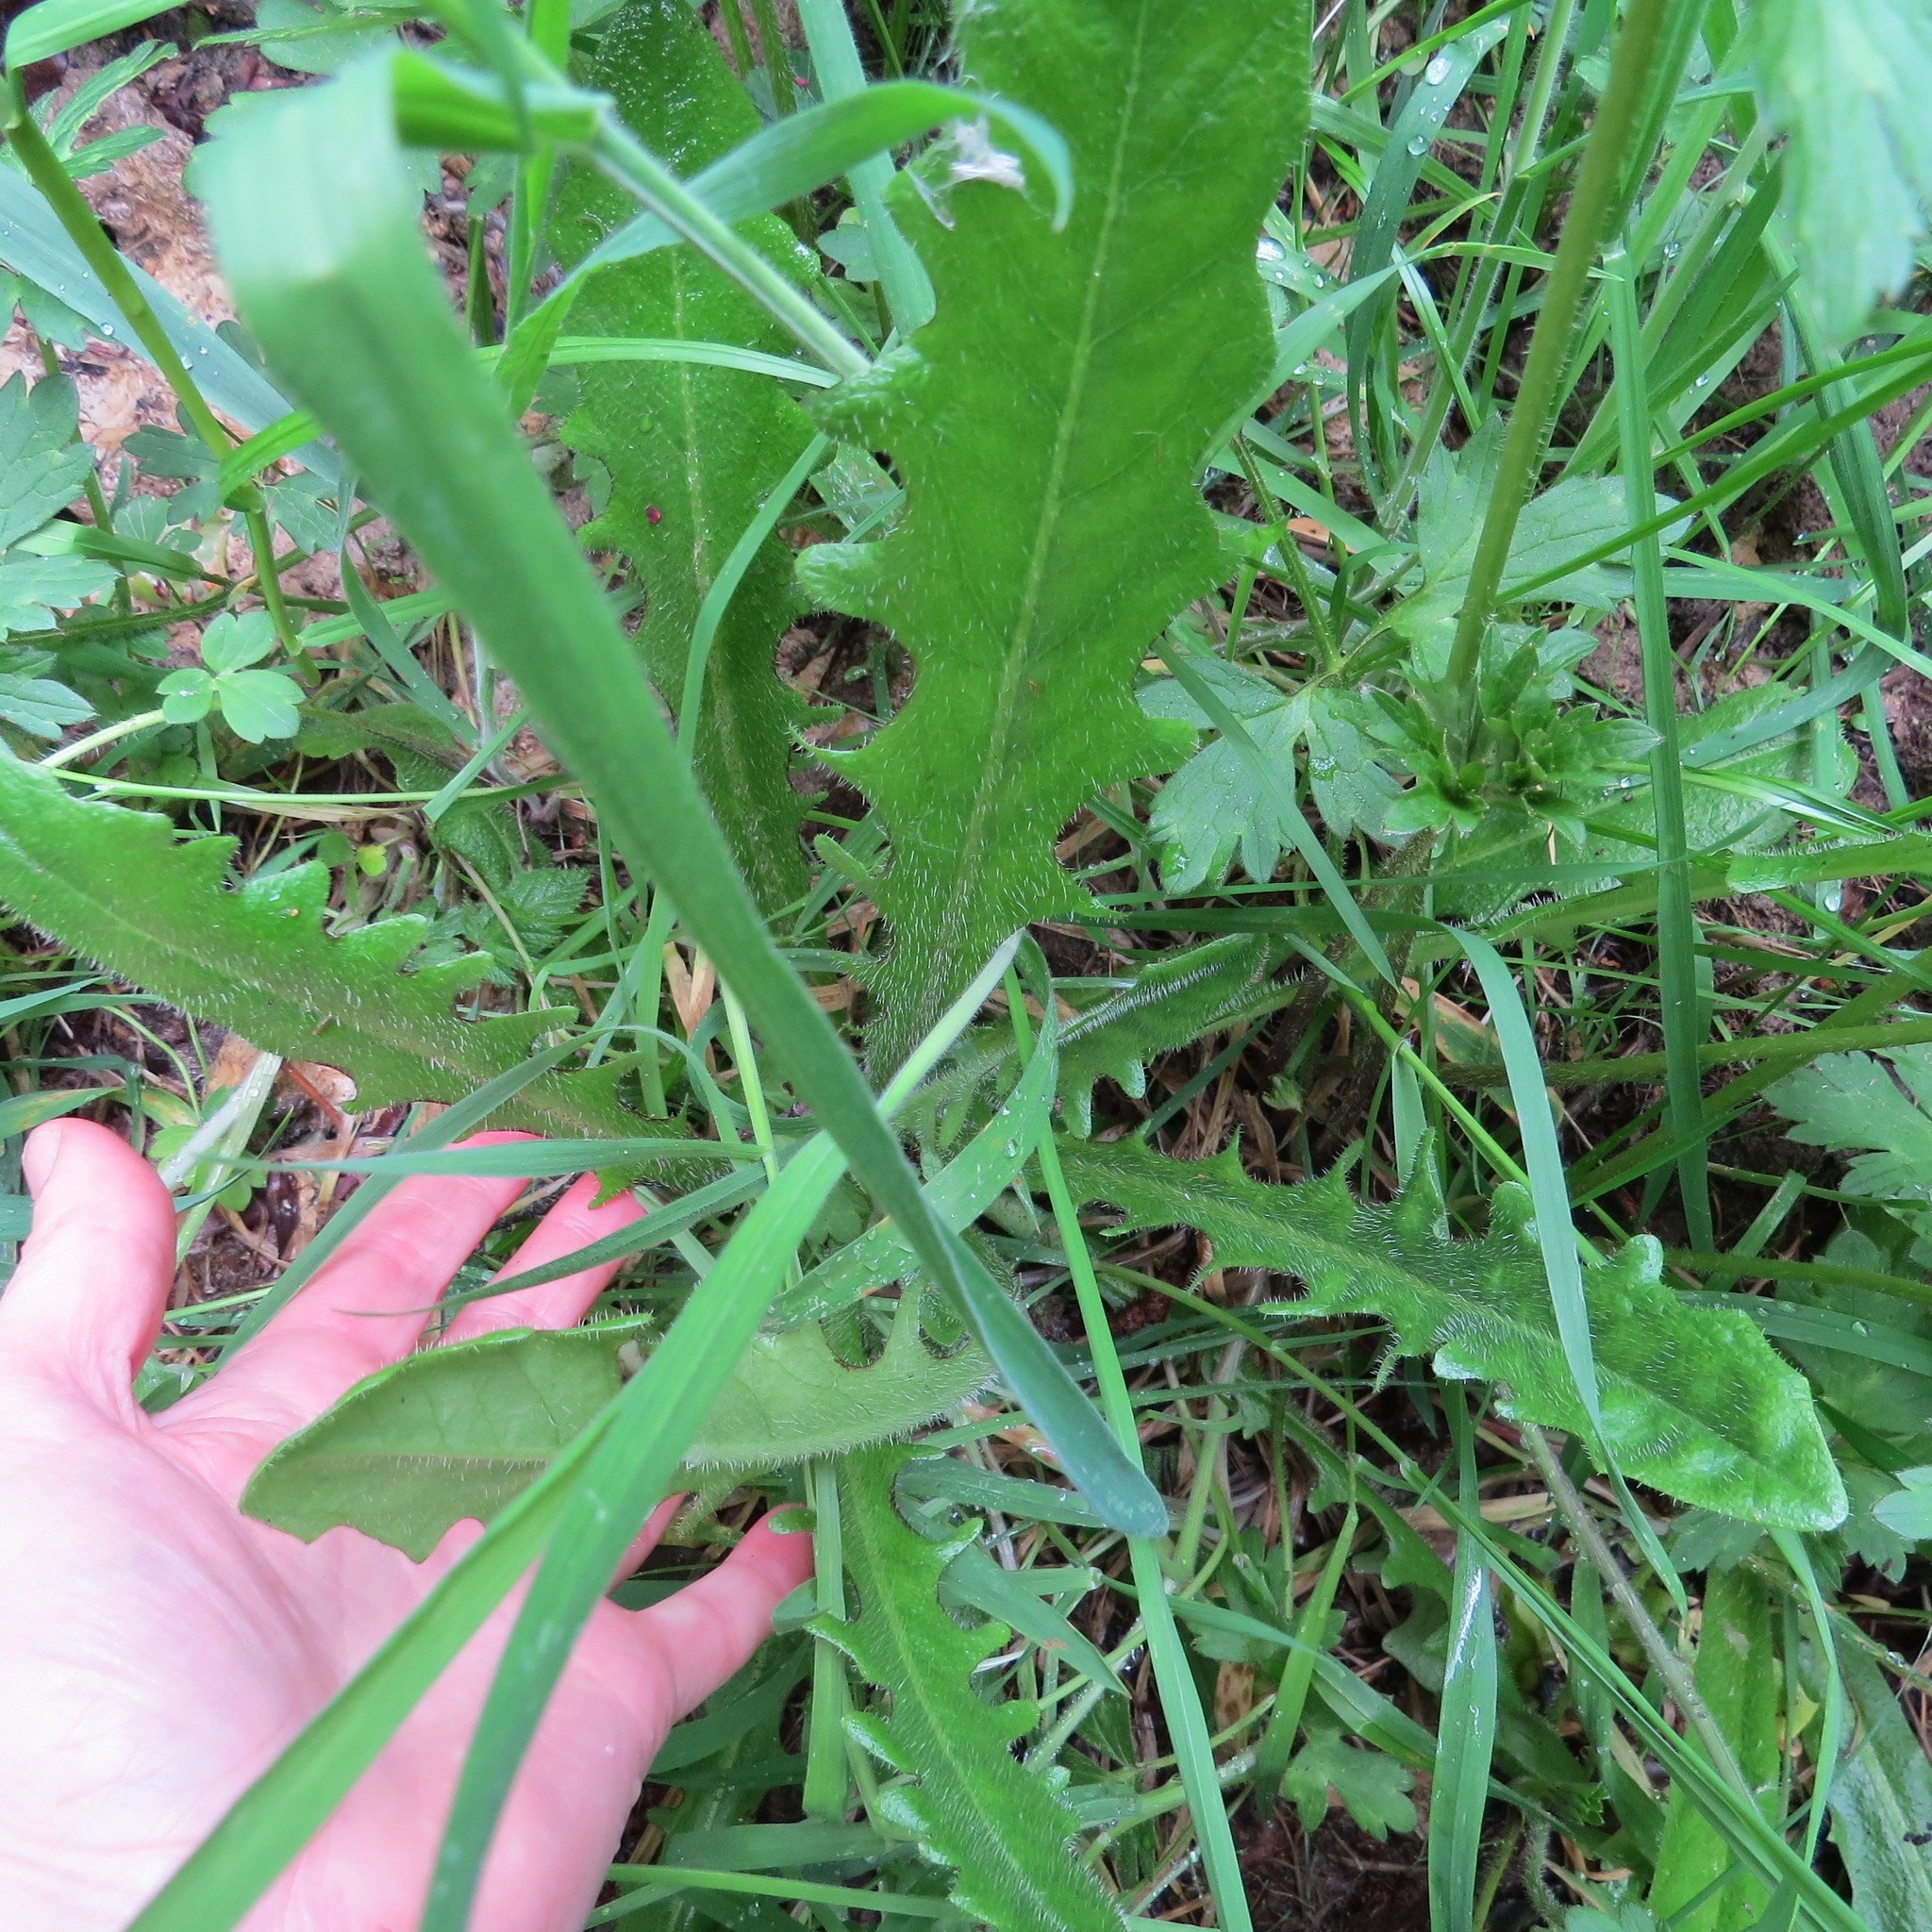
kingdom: Plantae
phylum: Tracheophyta
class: Magnoliopsida
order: Asterales
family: Asteraceae
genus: Hypochaeris
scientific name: Hypochaeris radicata
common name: Flatweed
